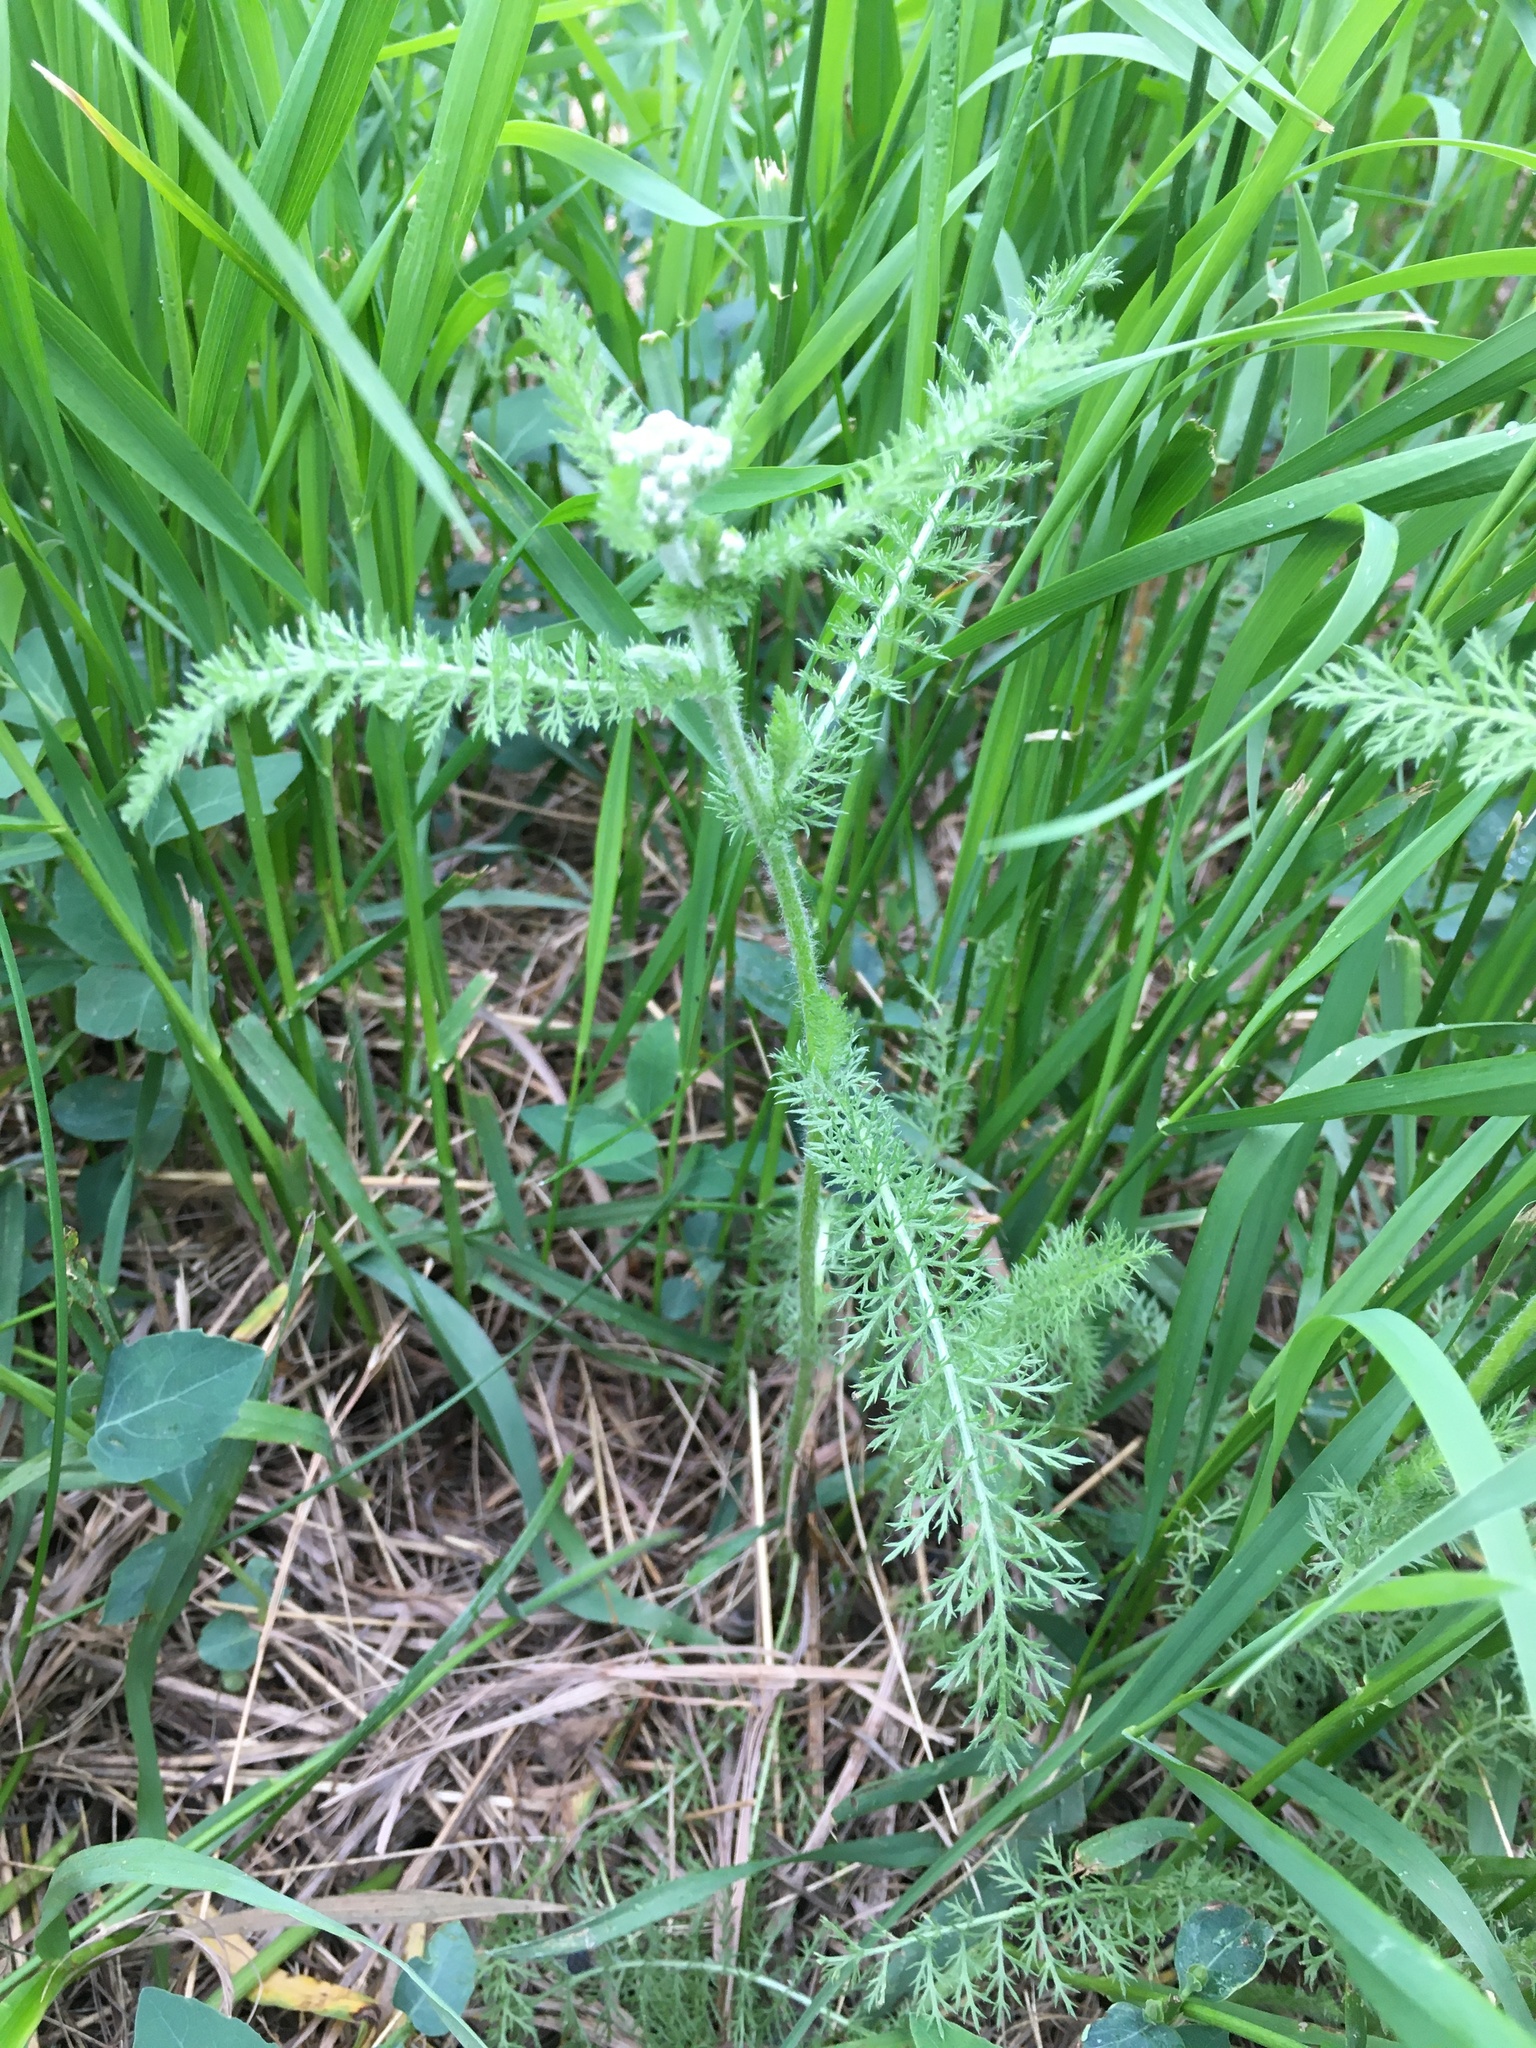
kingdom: Plantae
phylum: Tracheophyta
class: Magnoliopsida
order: Asterales
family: Asteraceae
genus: Achillea
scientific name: Achillea millefolium
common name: Yarrow
